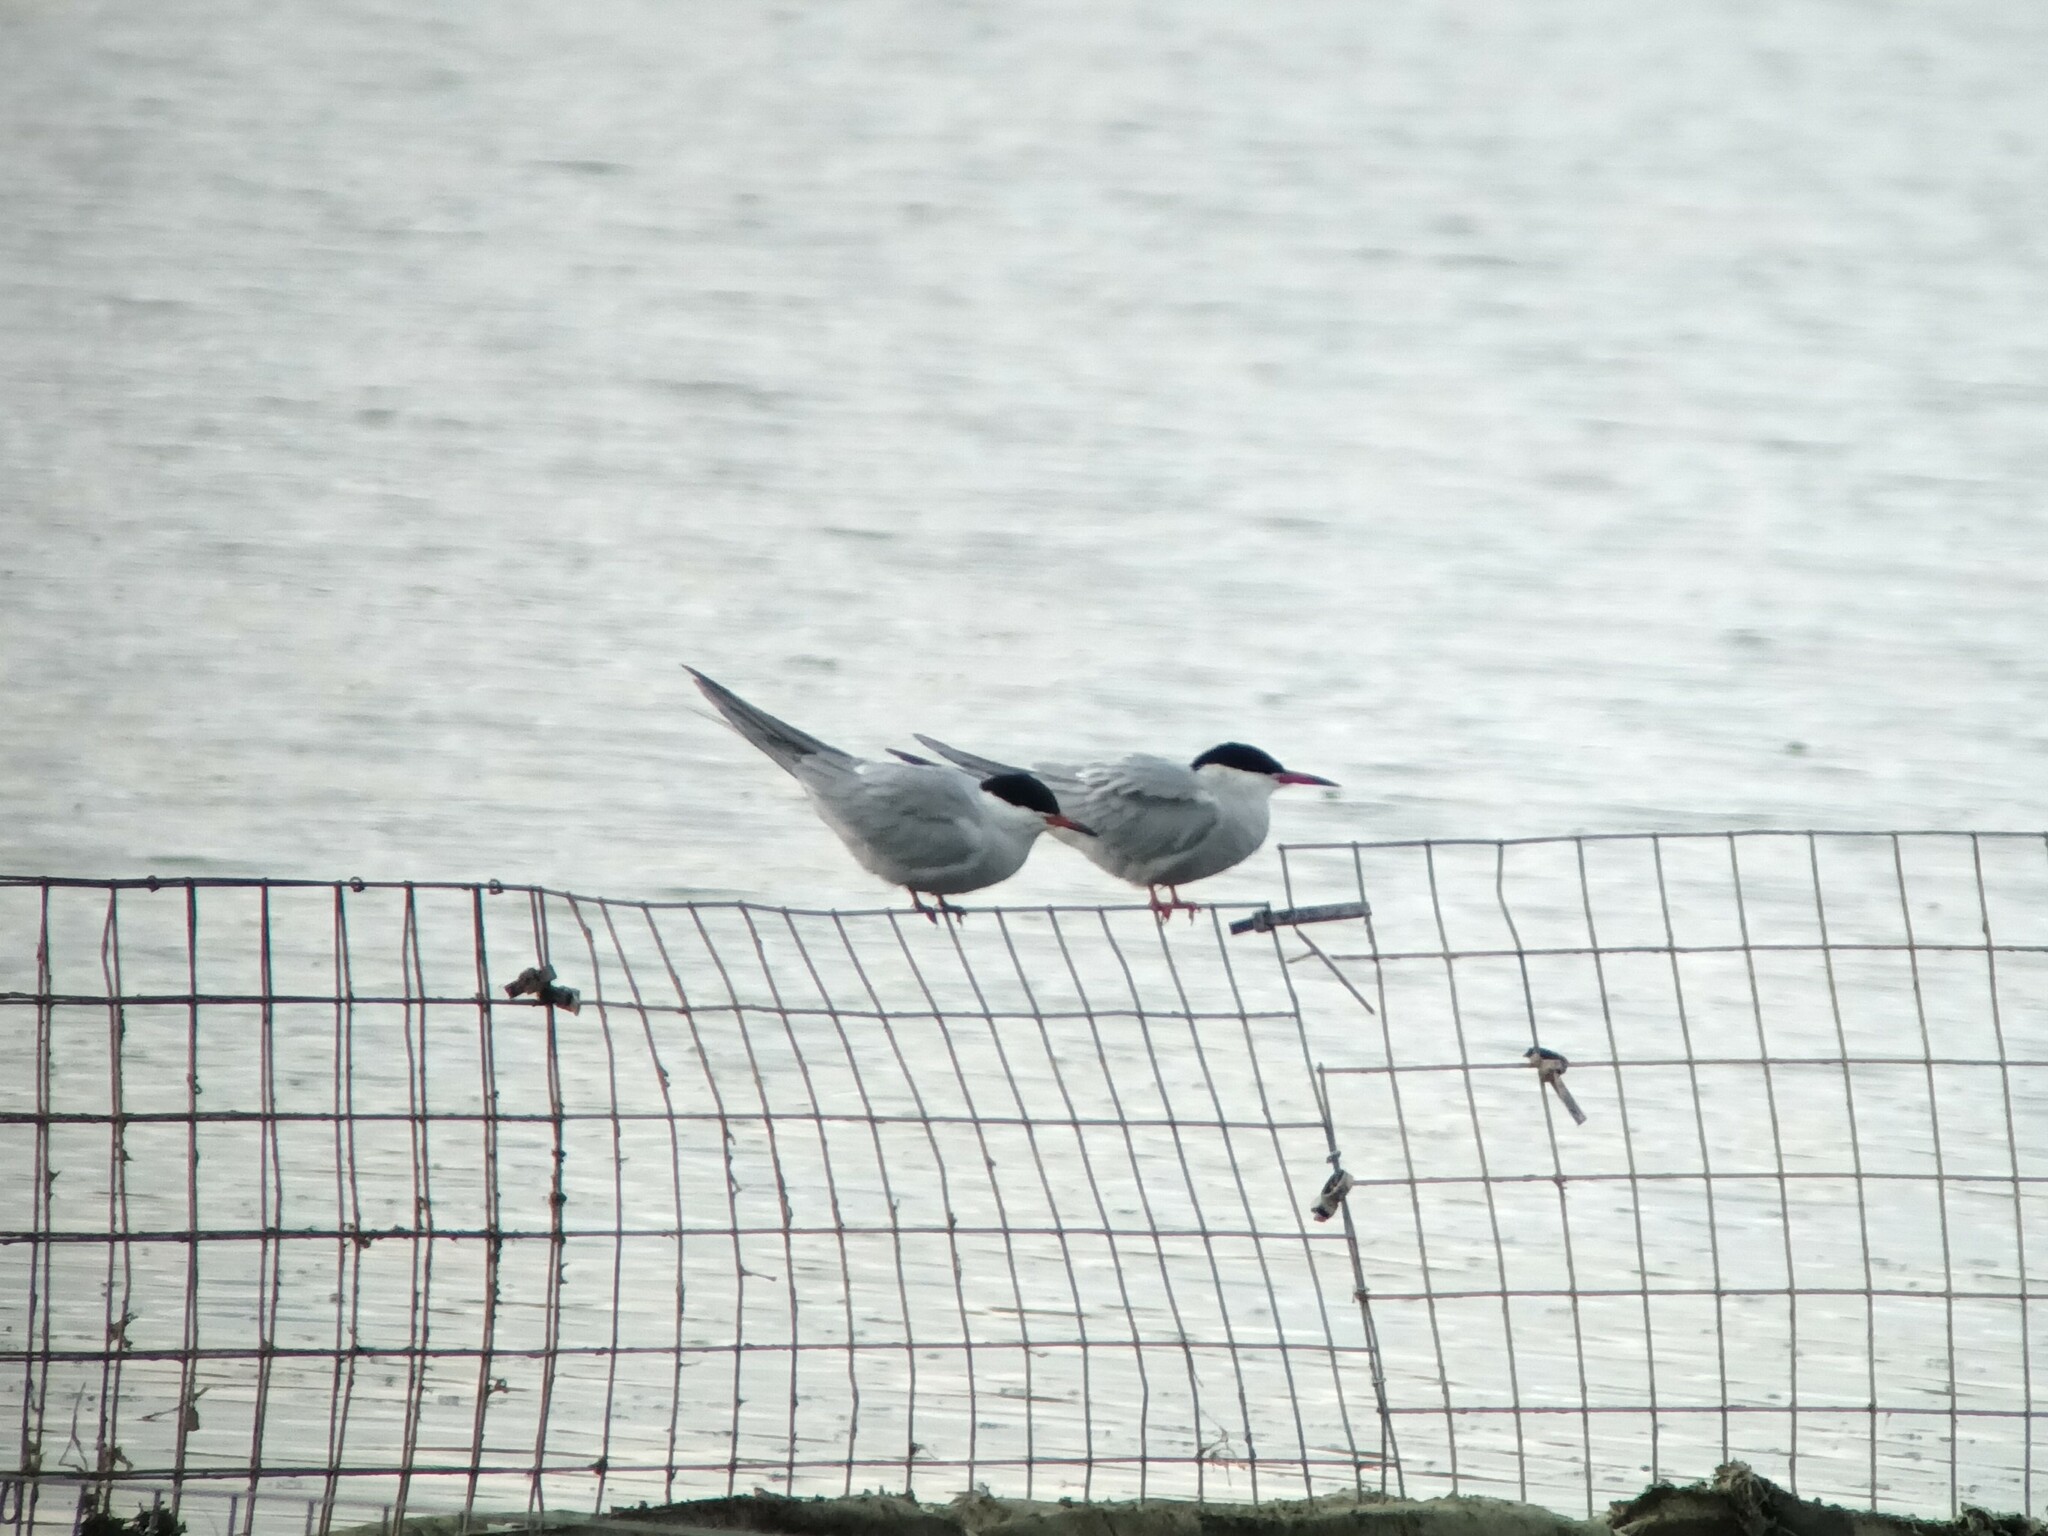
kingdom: Animalia
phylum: Chordata
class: Aves
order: Charadriiformes
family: Laridae
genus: Sterna
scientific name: Sterna hirundo
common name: Common tern
